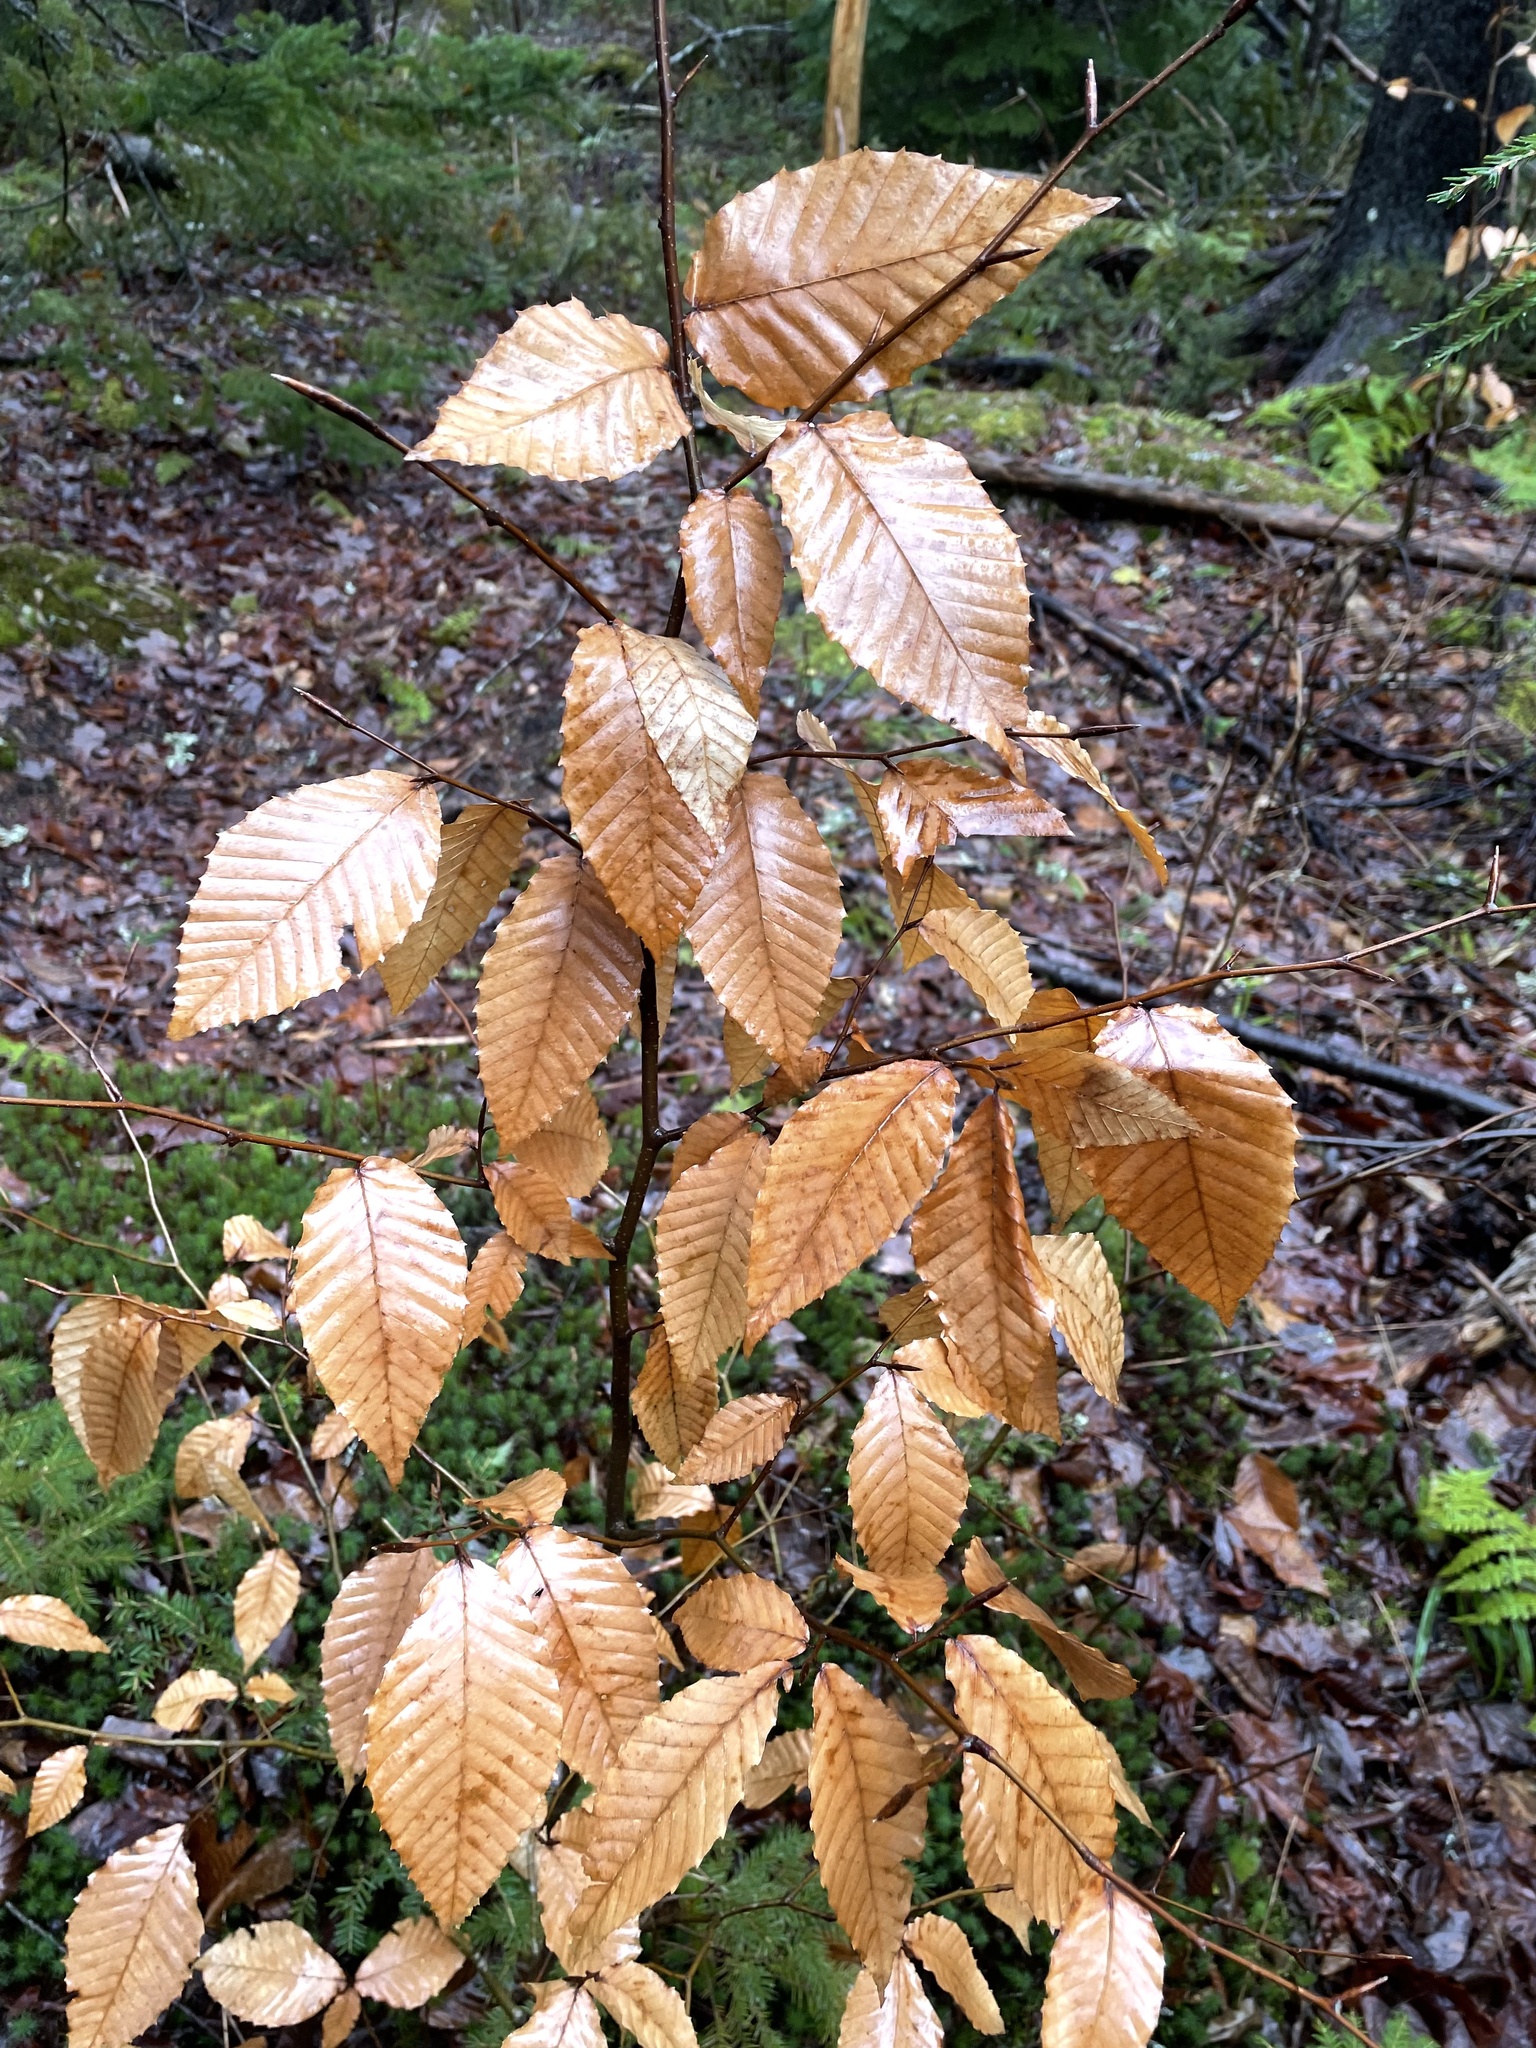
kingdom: Plantae
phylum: Tracheophyta
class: Magnoliopsida
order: Fagales
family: Fagaceae
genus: Fagus
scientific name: Fagus grandifolia
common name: American beech
